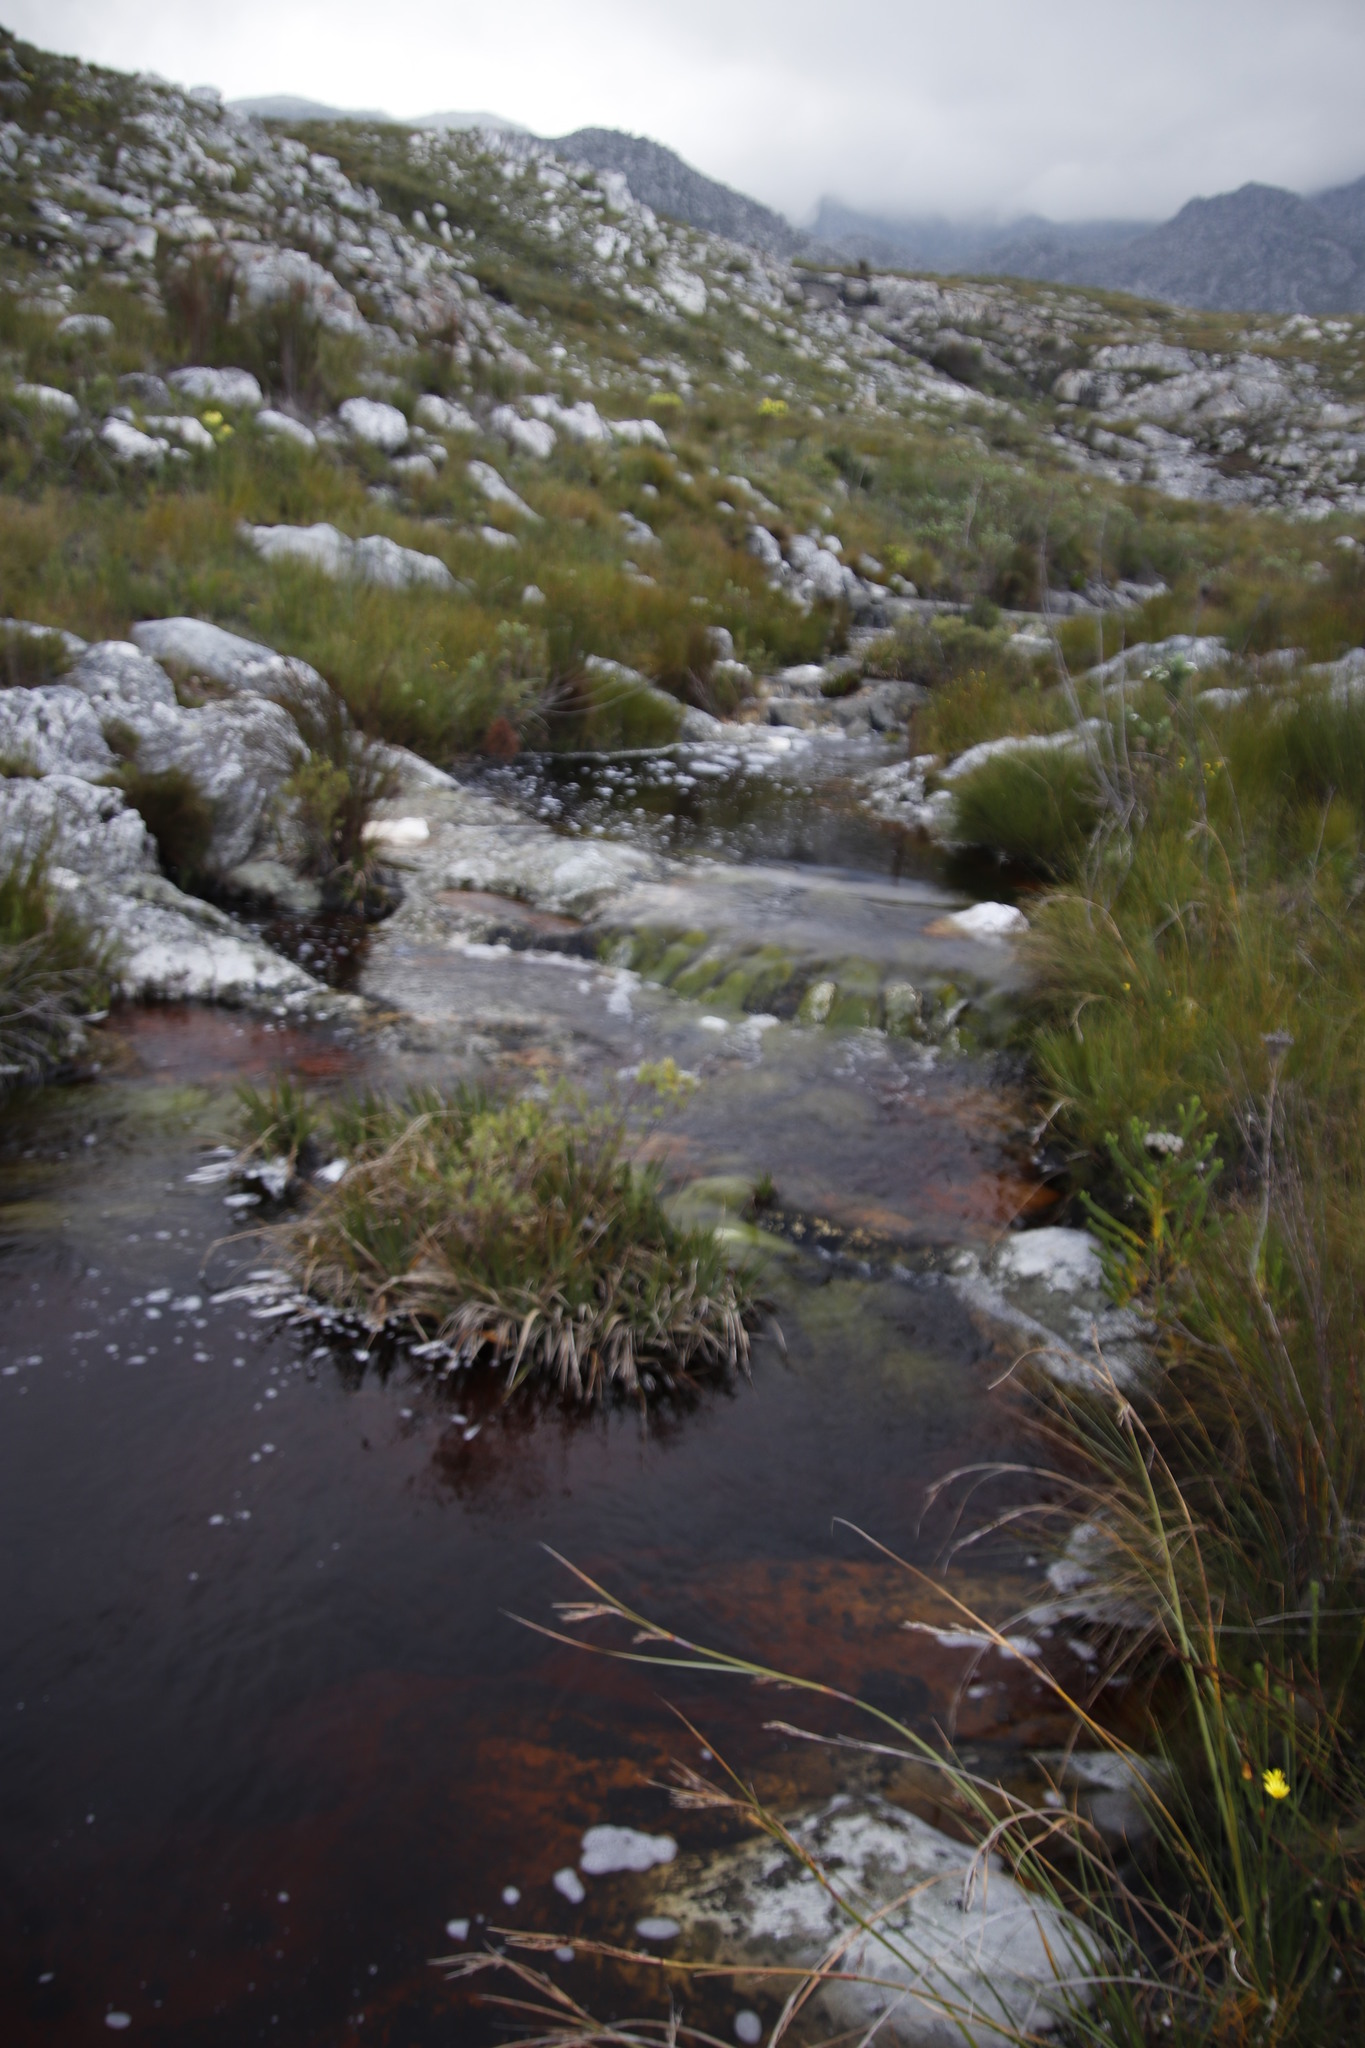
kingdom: Plantae
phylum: Tracheophyta
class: Liliopsida
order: Poales
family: Thurniaceae
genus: Prionium
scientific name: Prionium serratum
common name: Palmiet
